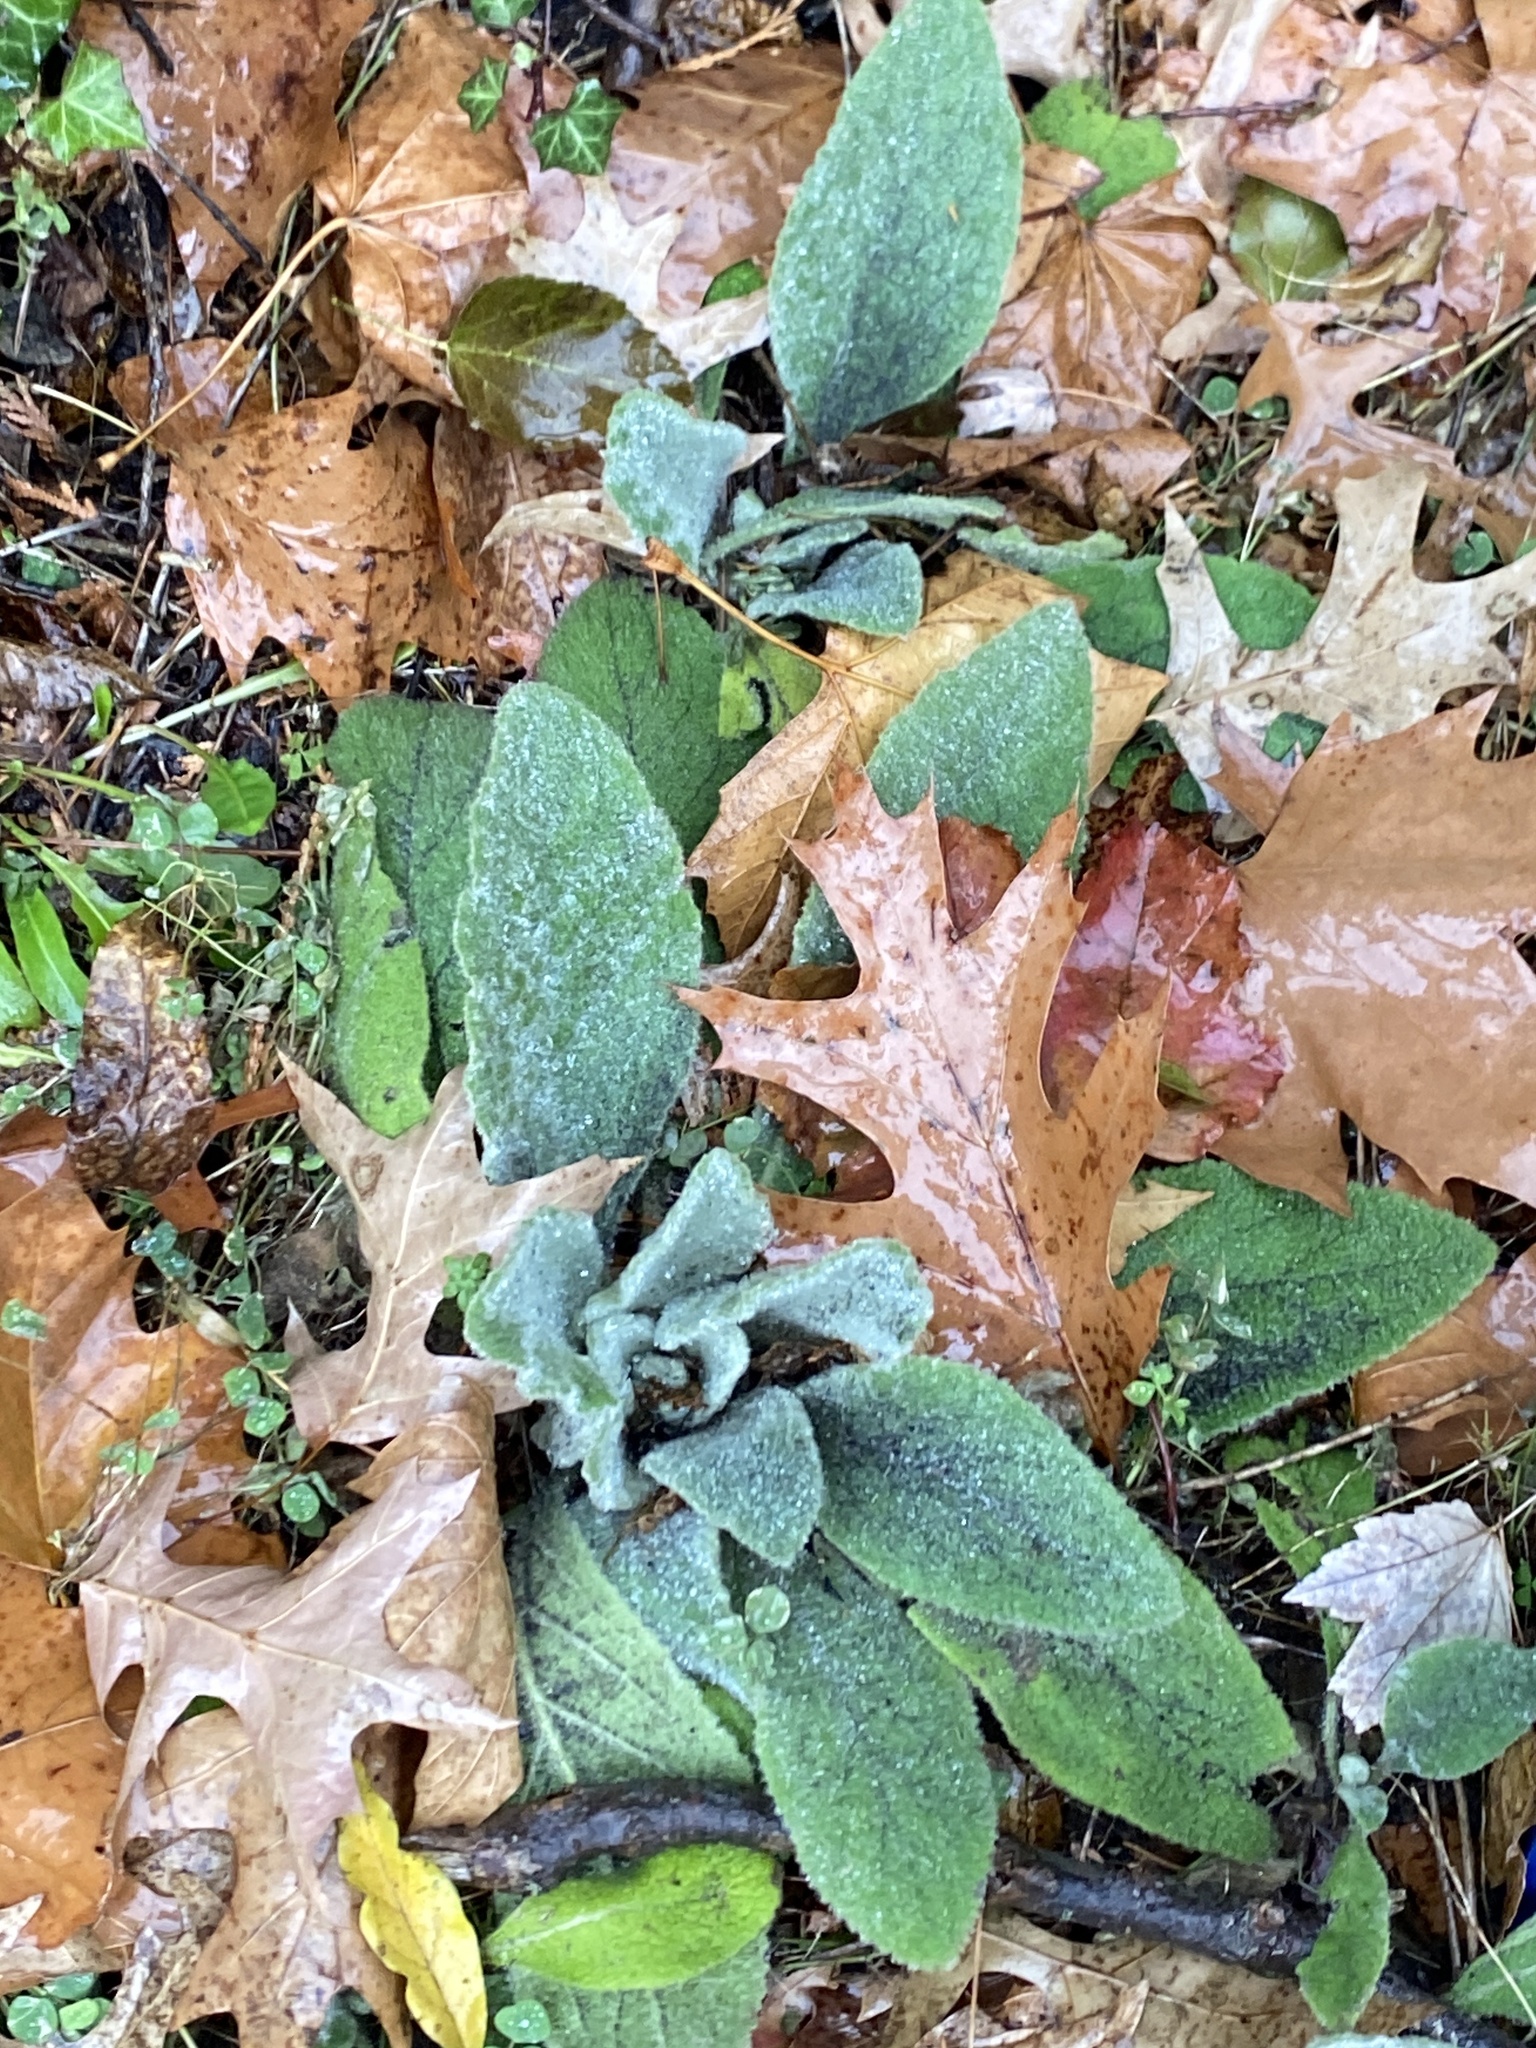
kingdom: Plantae
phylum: Tracheophyta
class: Magnoliopsida
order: Lamiales
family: Scrophulariaceae
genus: Verbascum
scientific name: Verbascum thapsus
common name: Common mullein
